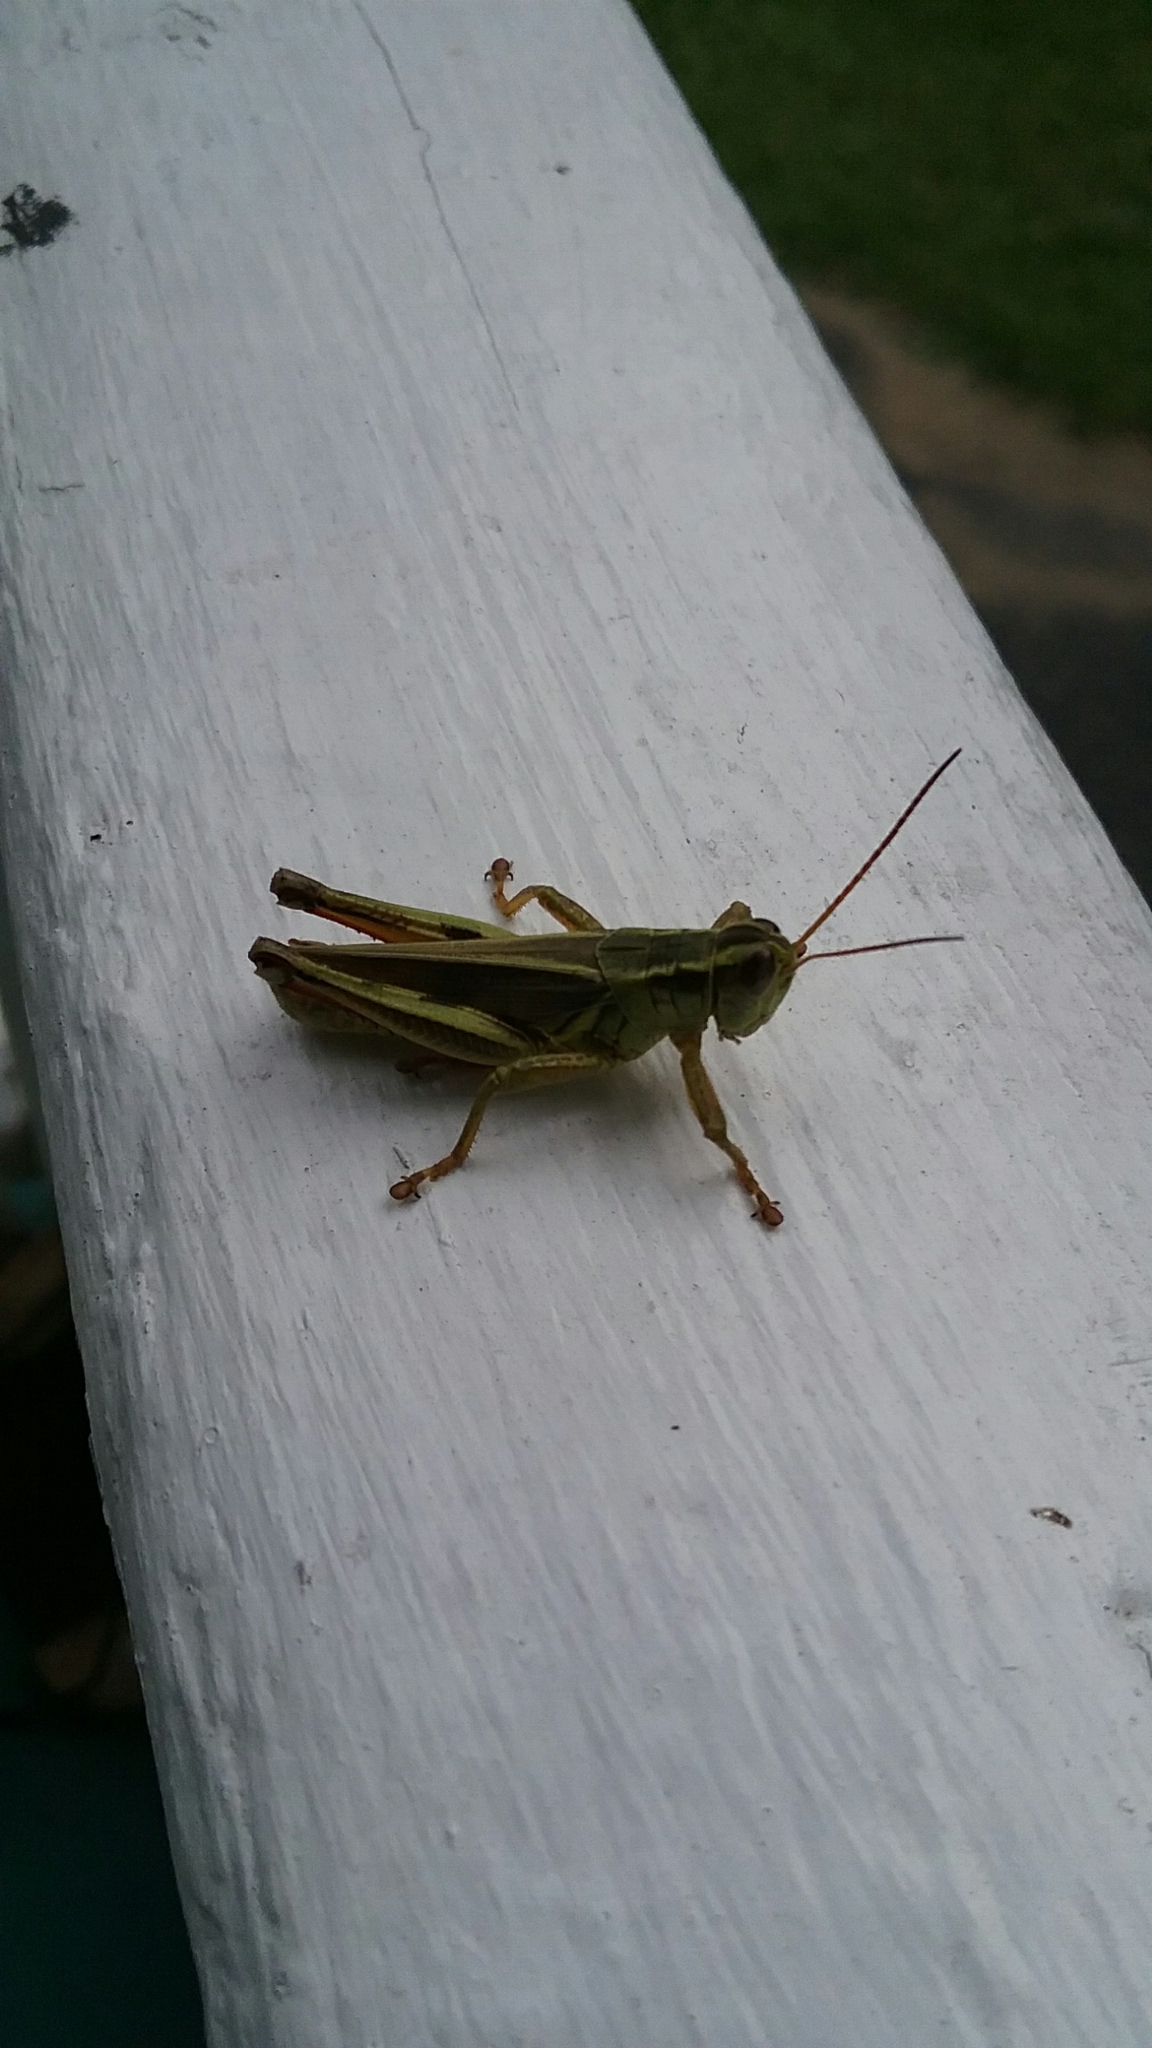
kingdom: Animalia
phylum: Arthropoda
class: Insecta
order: Orthoptera
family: Acrididae
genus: Melanoplus
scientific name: Melanoplus bivittatus
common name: Two-striped grasshopper
